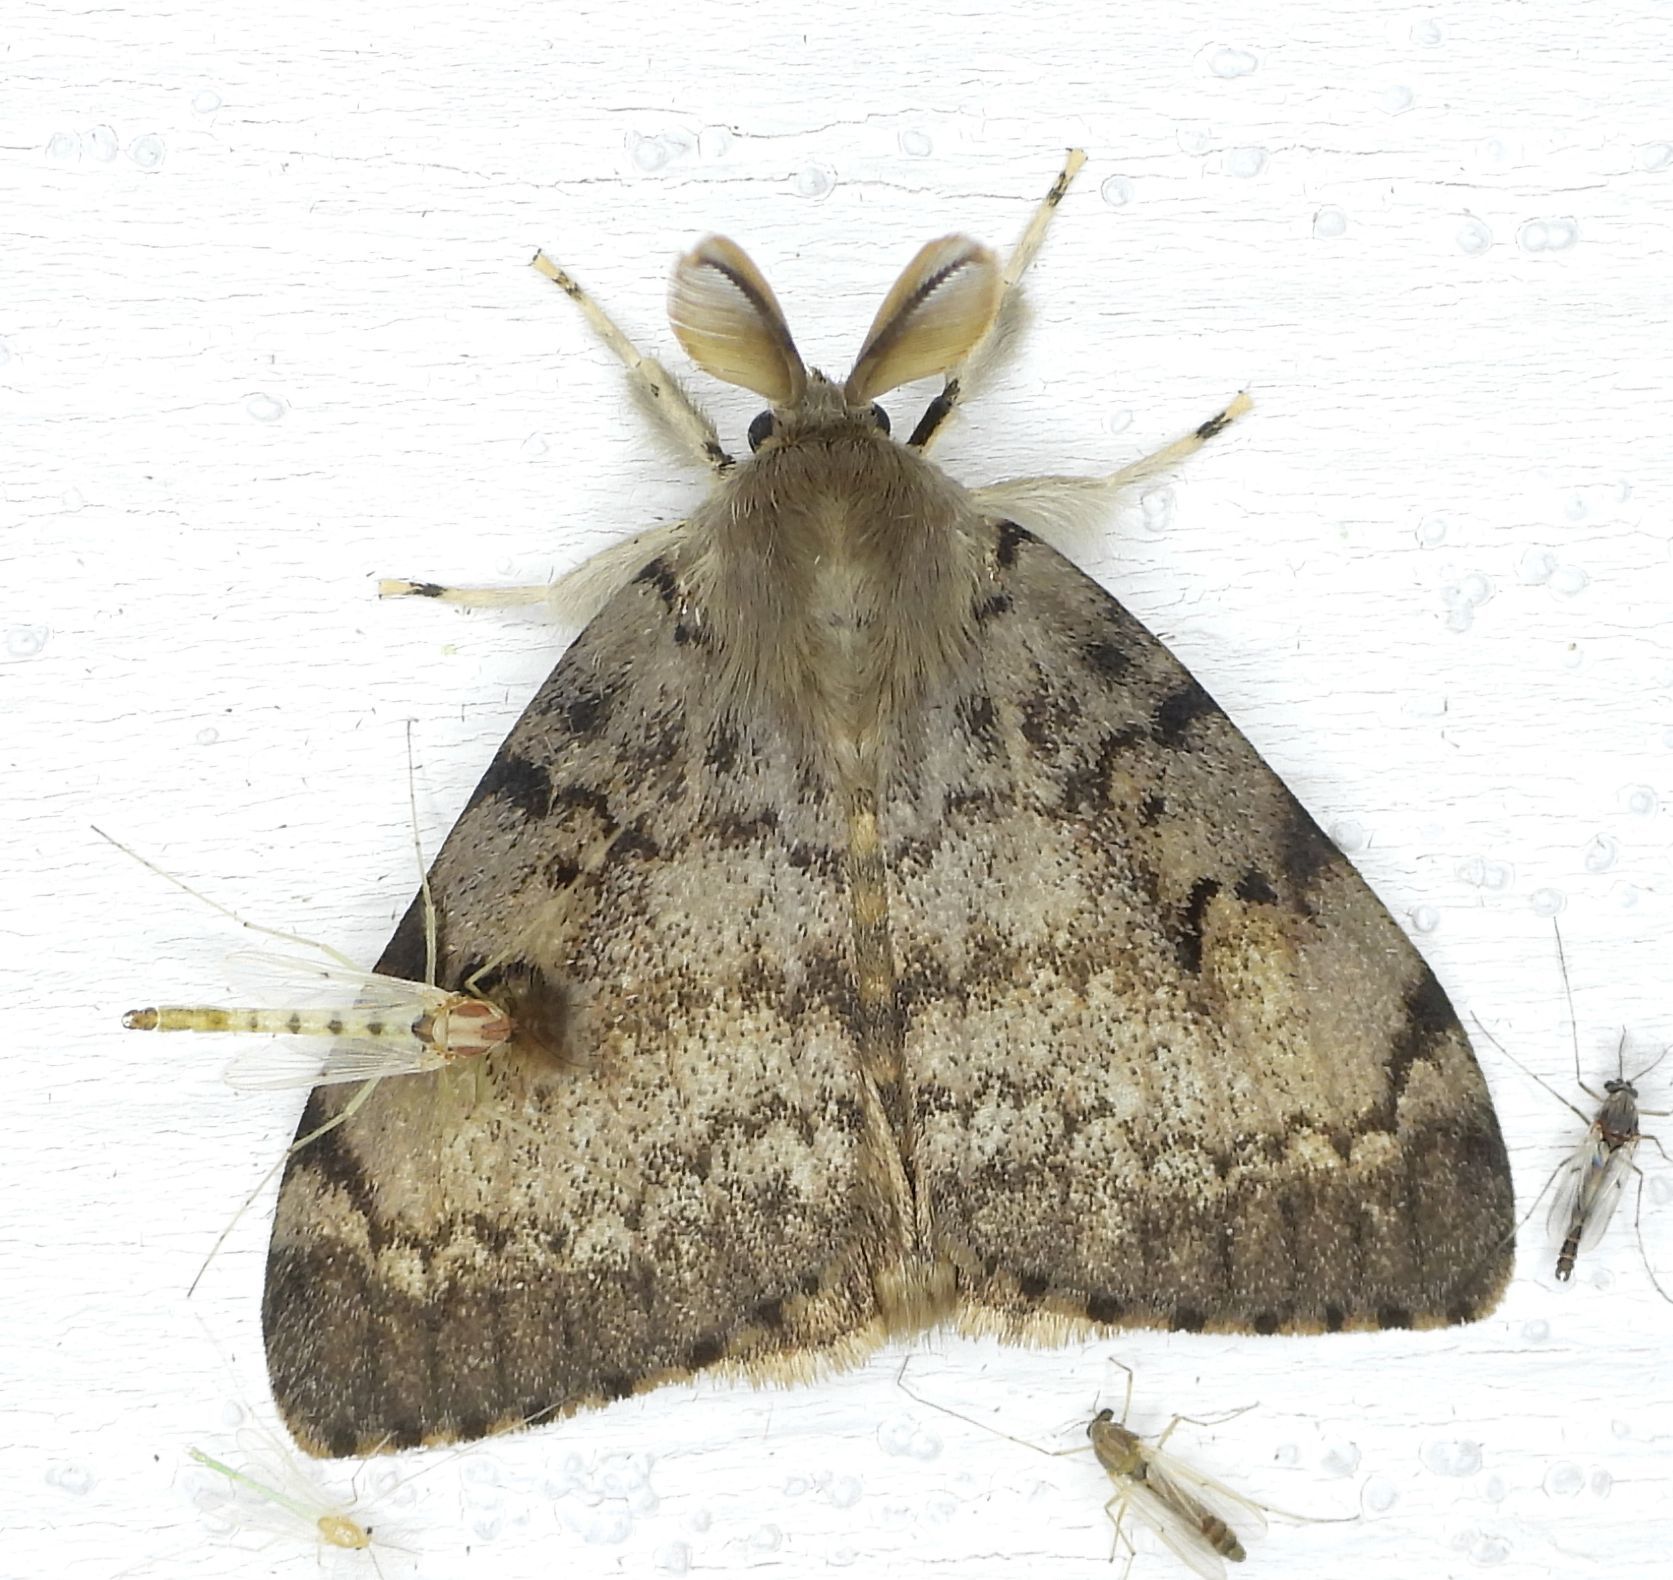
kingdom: Animalia
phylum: Arthropoda
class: Insecta
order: Lepidoptera
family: Erebidae
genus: Lymantria
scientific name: Lymantria dispar
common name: Gypsy moth
